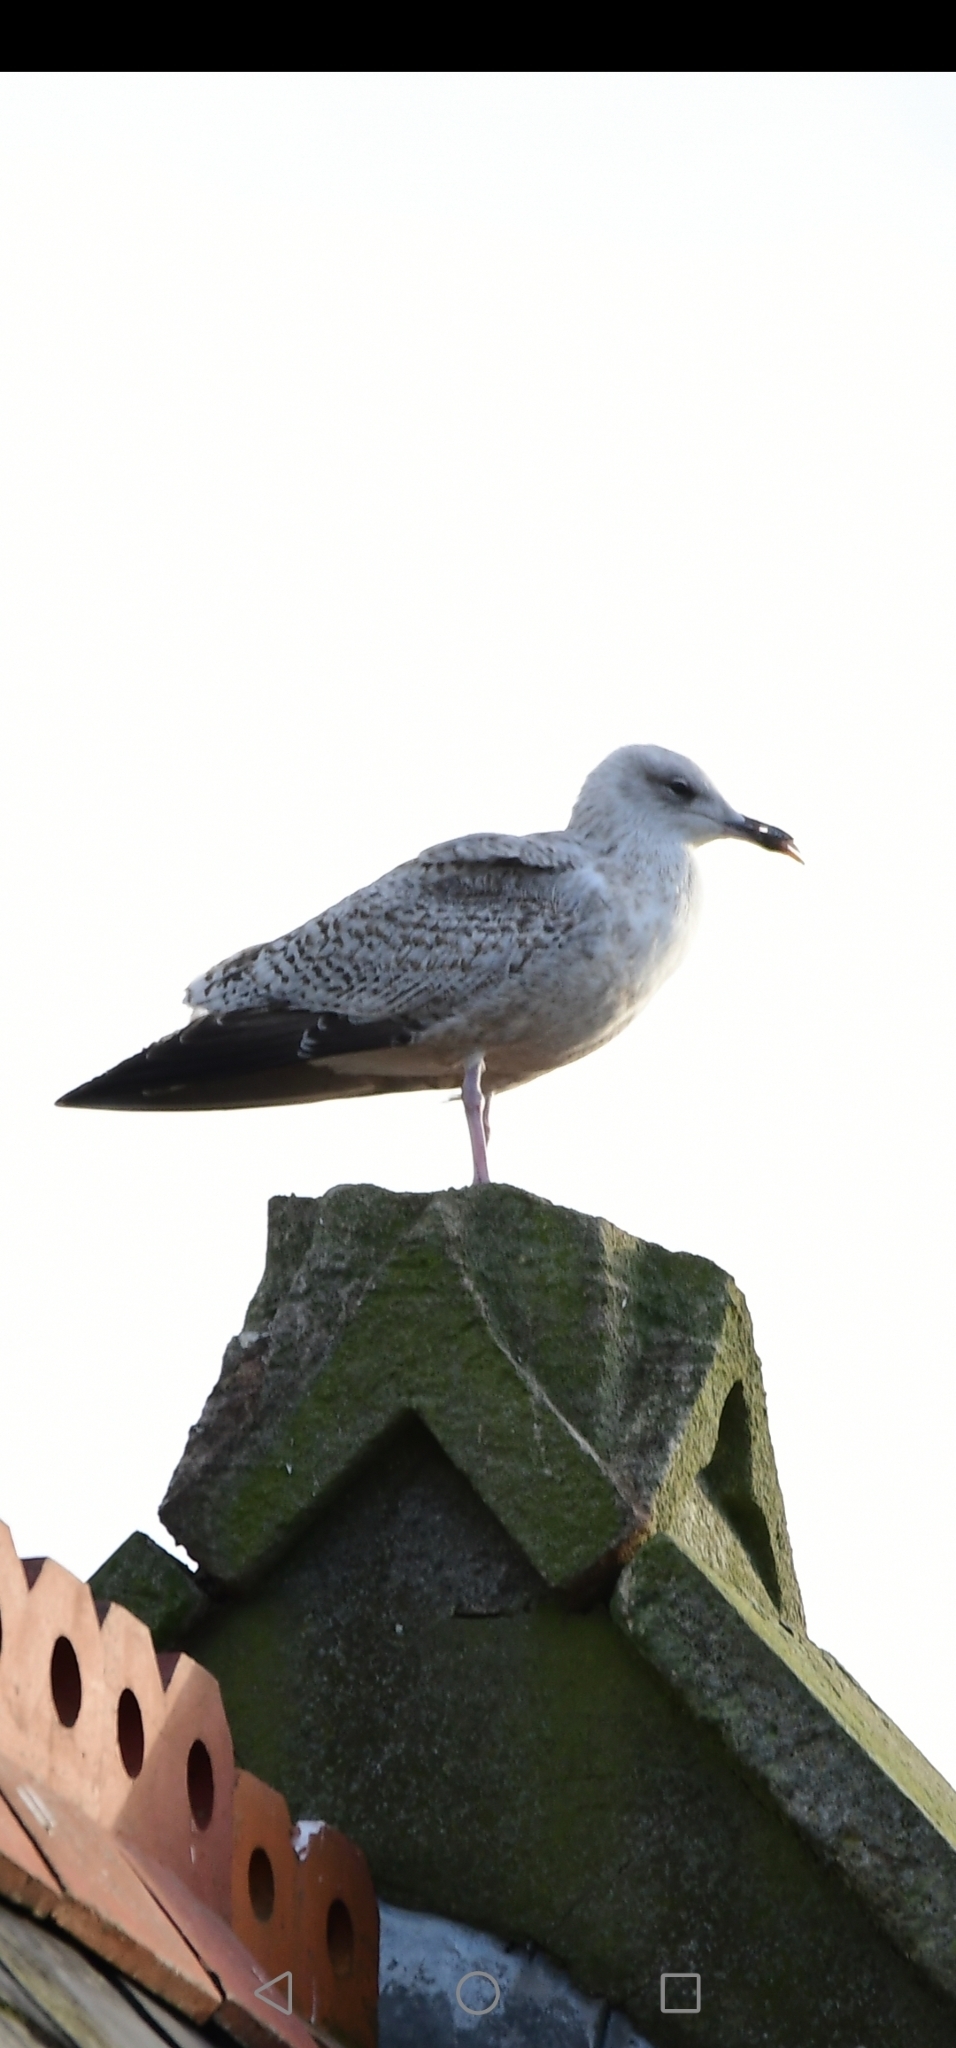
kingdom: Animalia
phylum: Chordata
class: Aves
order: Charadriiformes
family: Laridae
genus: Larus
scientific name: Larus argentatus
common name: Herring gull
